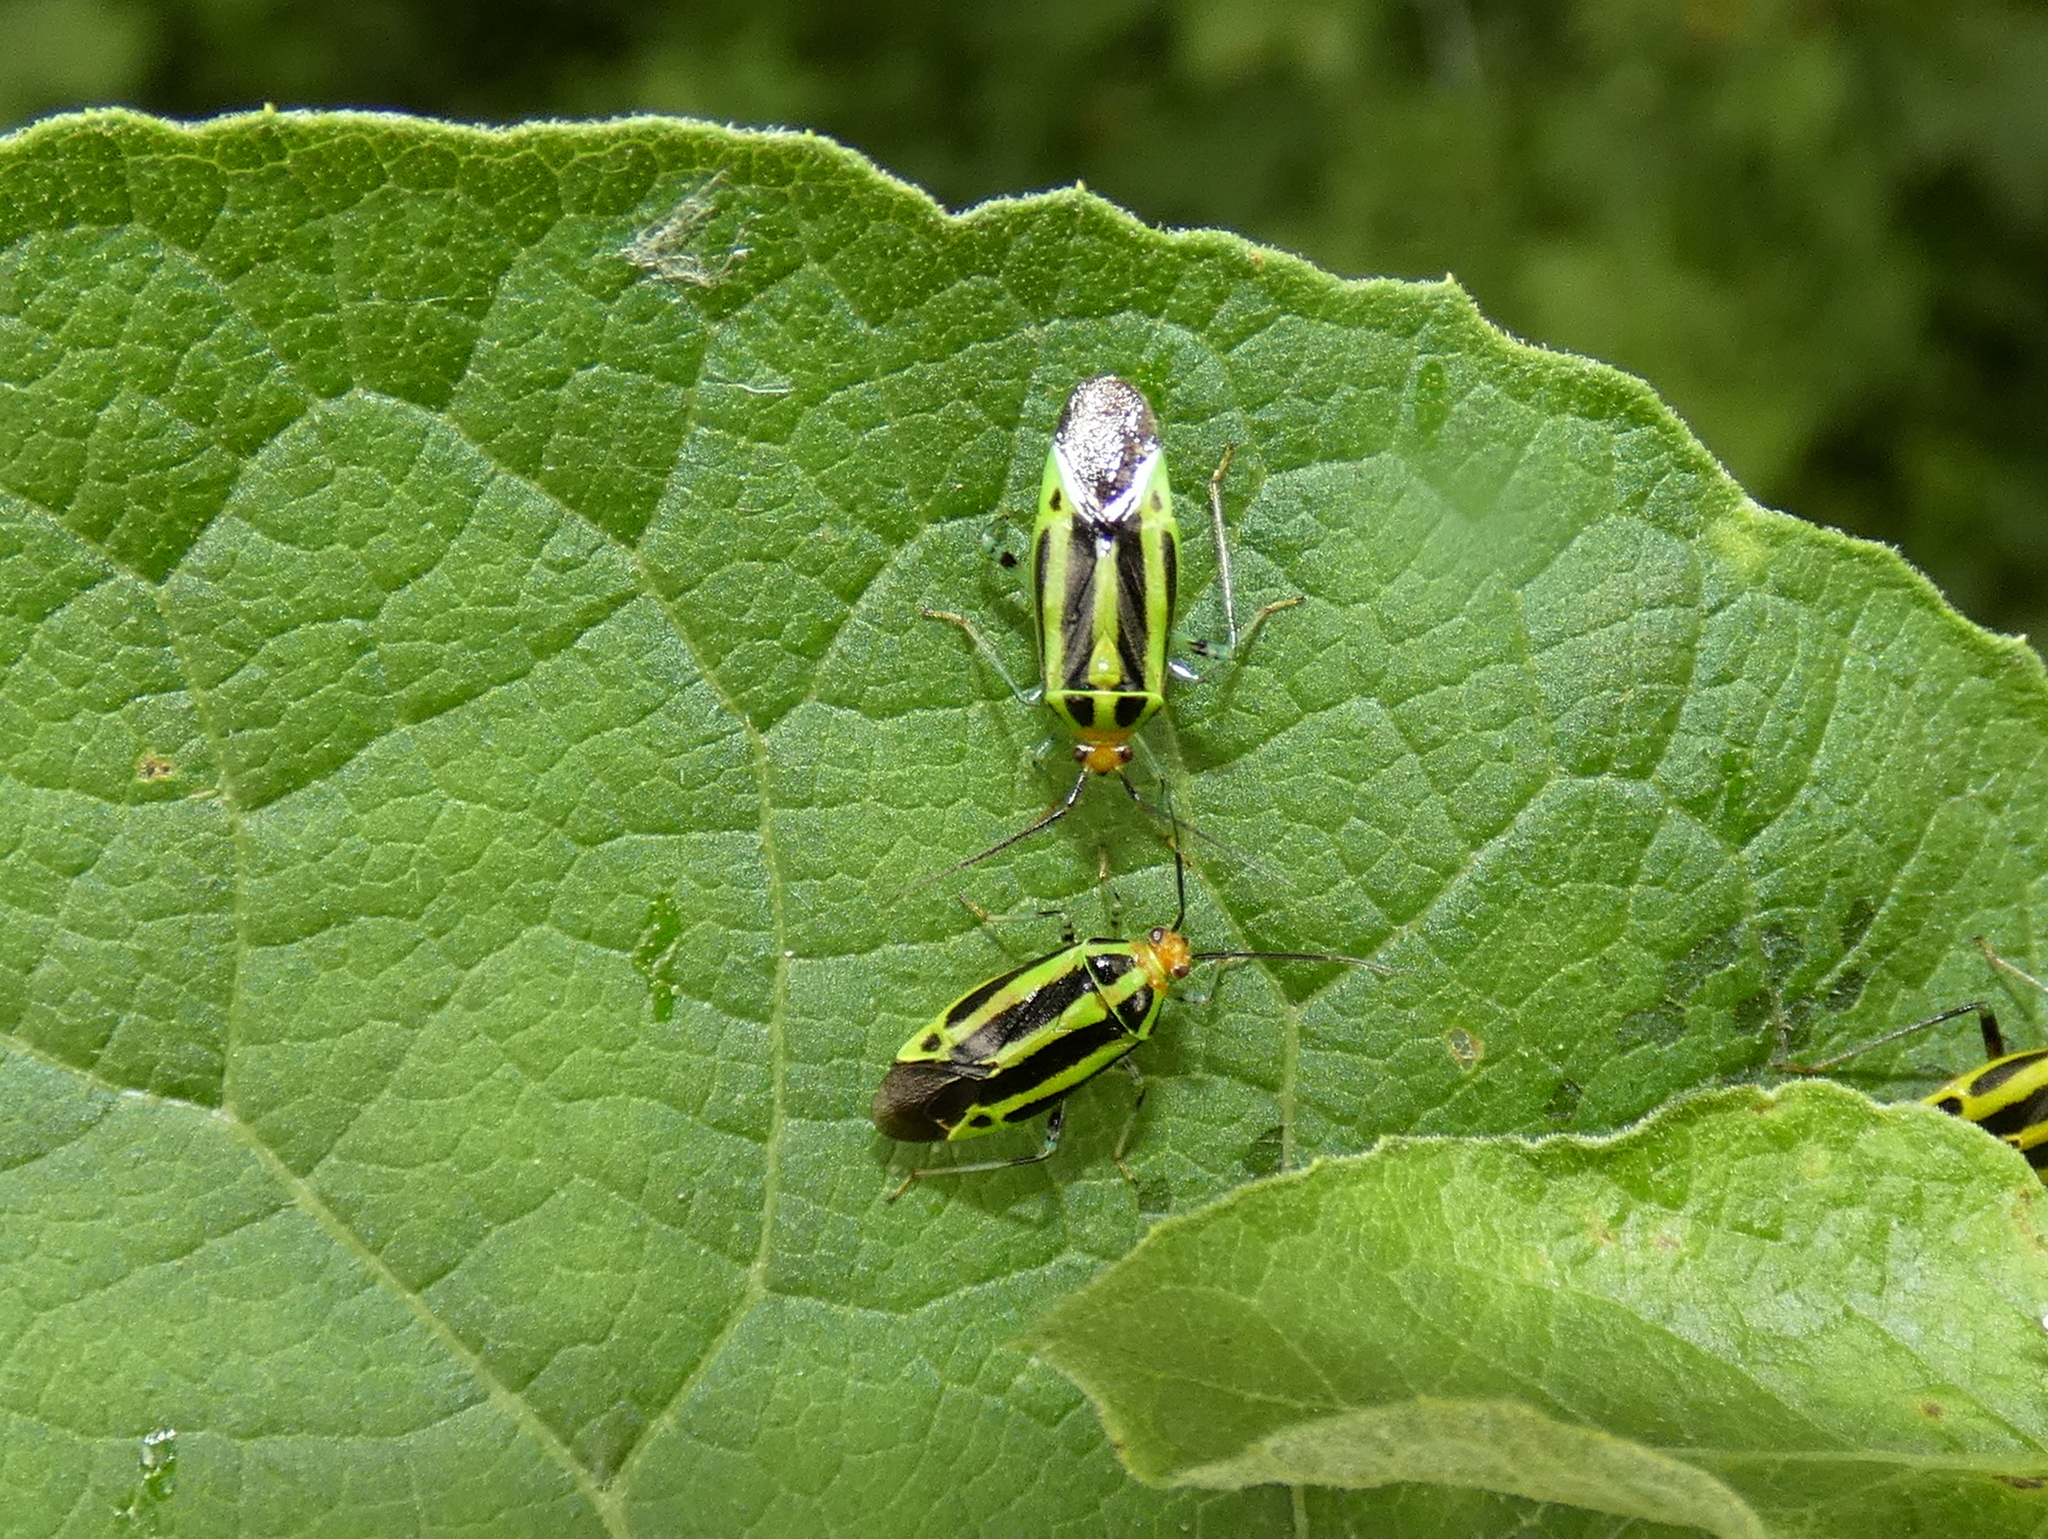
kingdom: Animalia
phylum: Arthropoda
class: Insecta
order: Hemiptera
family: Miridae
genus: Poecilocapsus
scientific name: Poecilocapsus lineatus
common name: Four-lined plant bug
